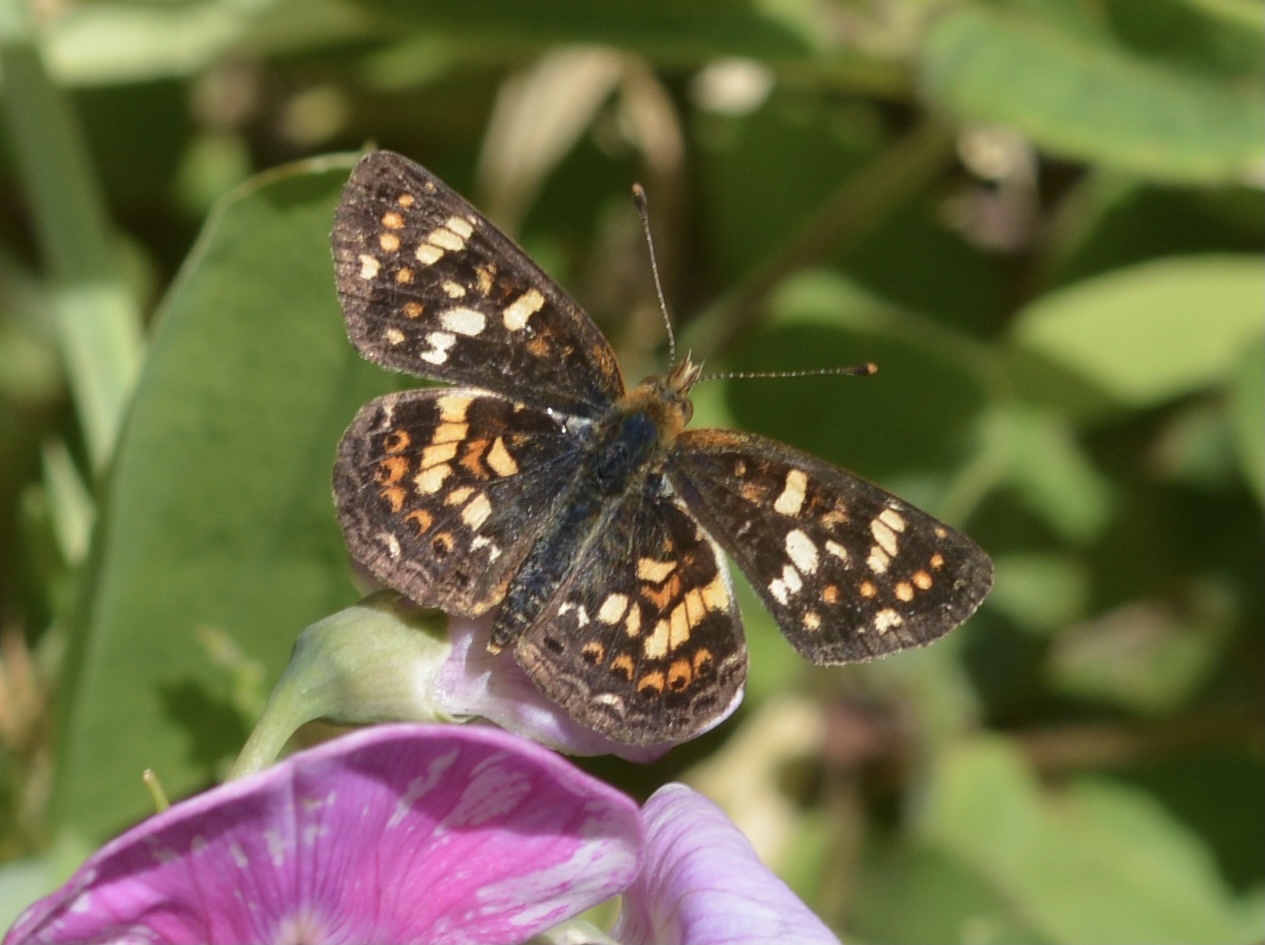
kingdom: Animalia
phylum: Arthropoda
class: Insecta
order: Lepidoptera
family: Nymphalidae
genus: Phyciodes
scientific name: Phyciodes tharos
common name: Pearl crescent
